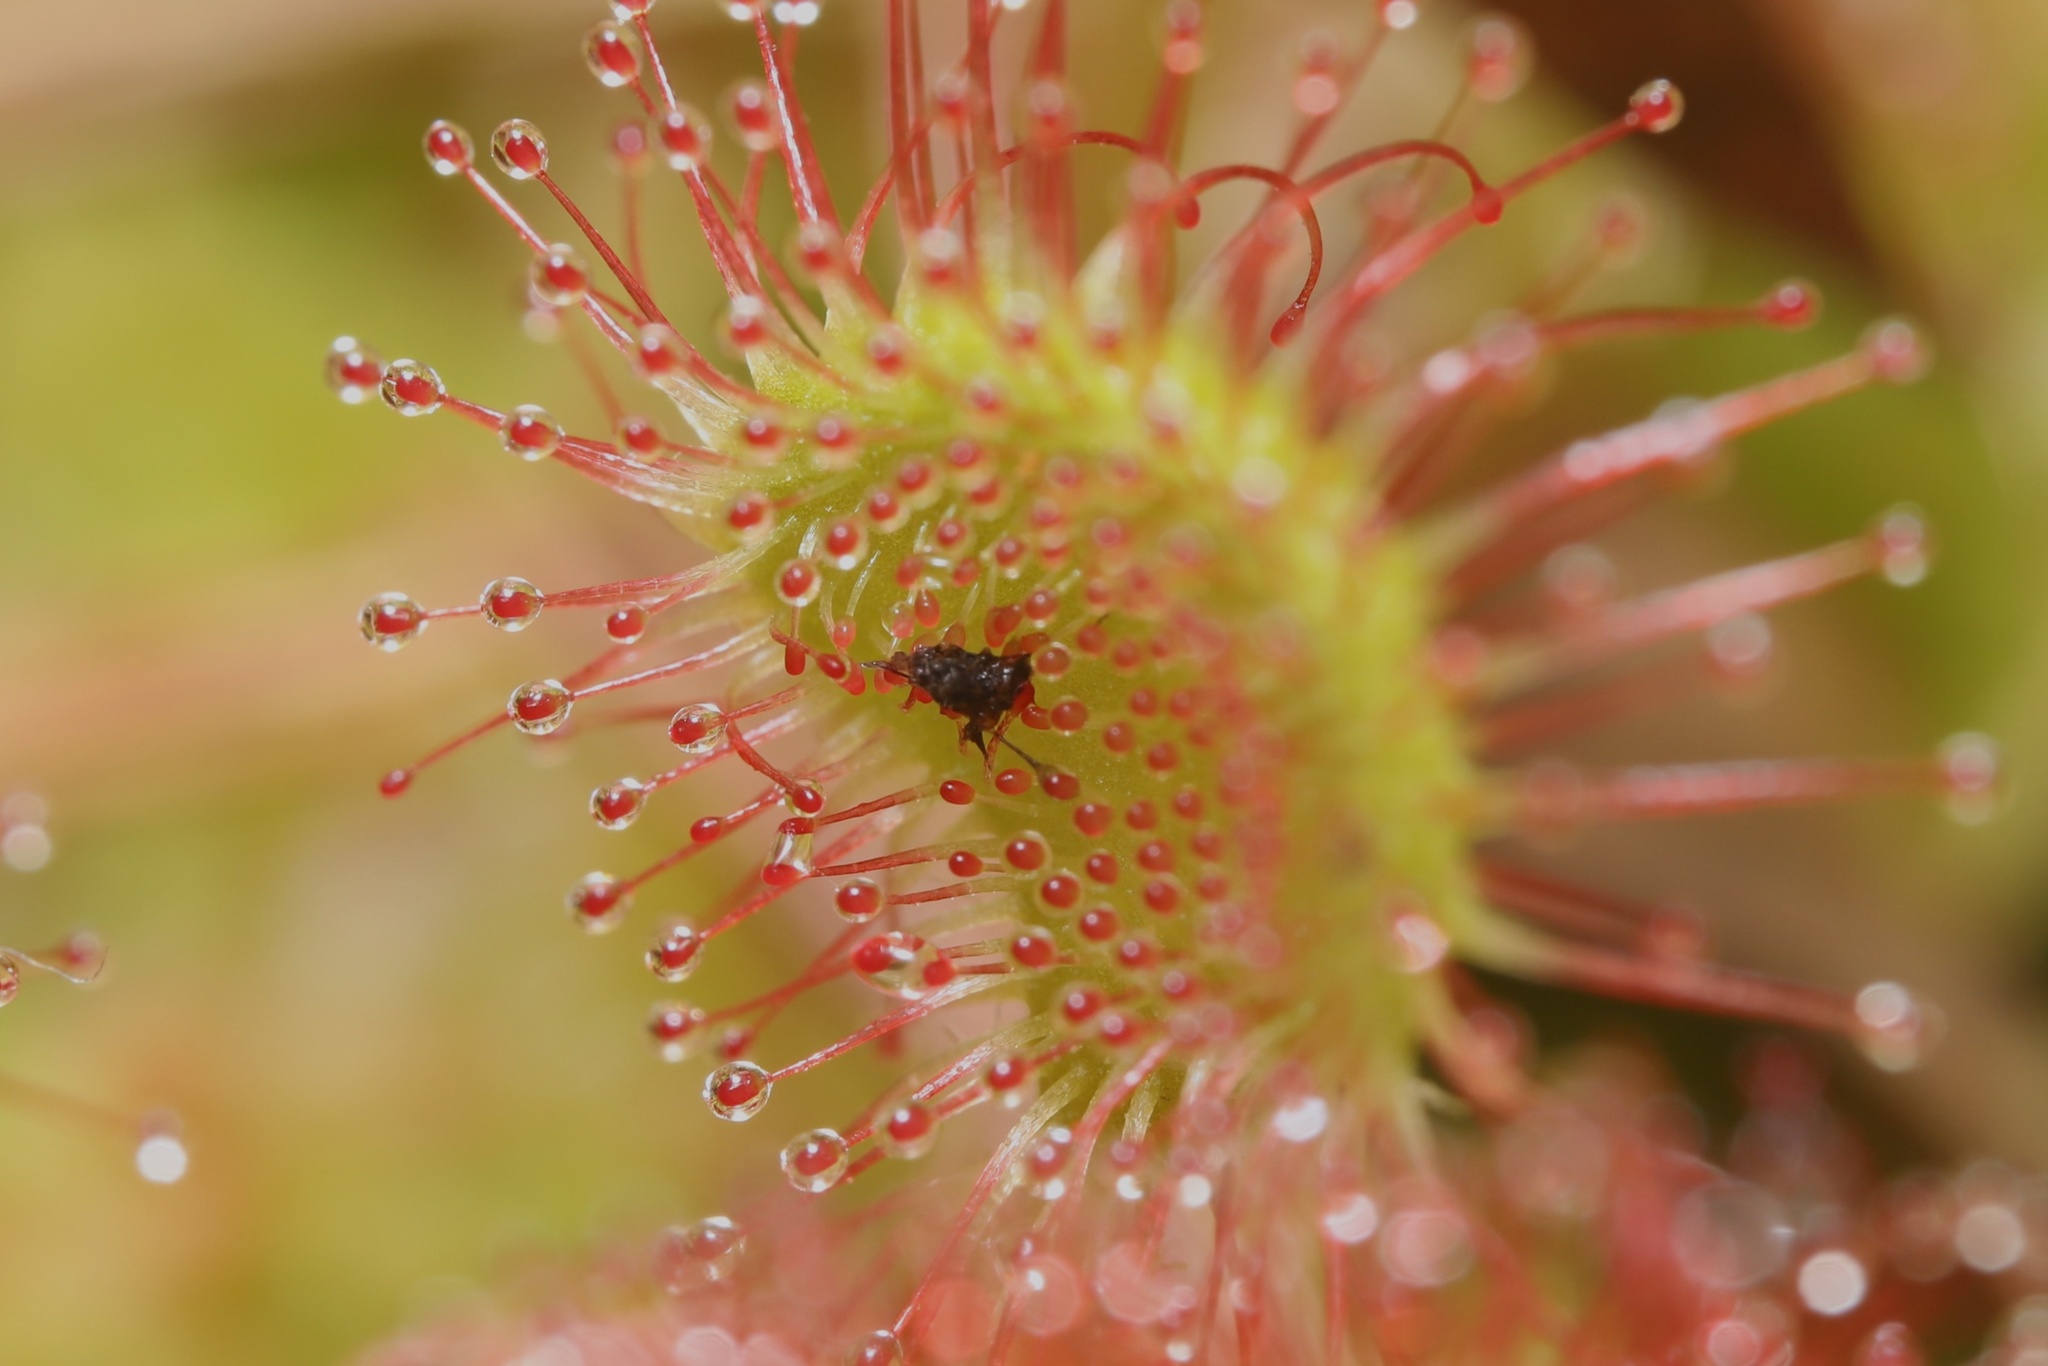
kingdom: Plantae
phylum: Tracheophyta
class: Magnoliopsida
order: Caryophyllales
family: Droseraceae
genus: Drosera
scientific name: Drosera rotundifolia
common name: Round-leaved sundew
